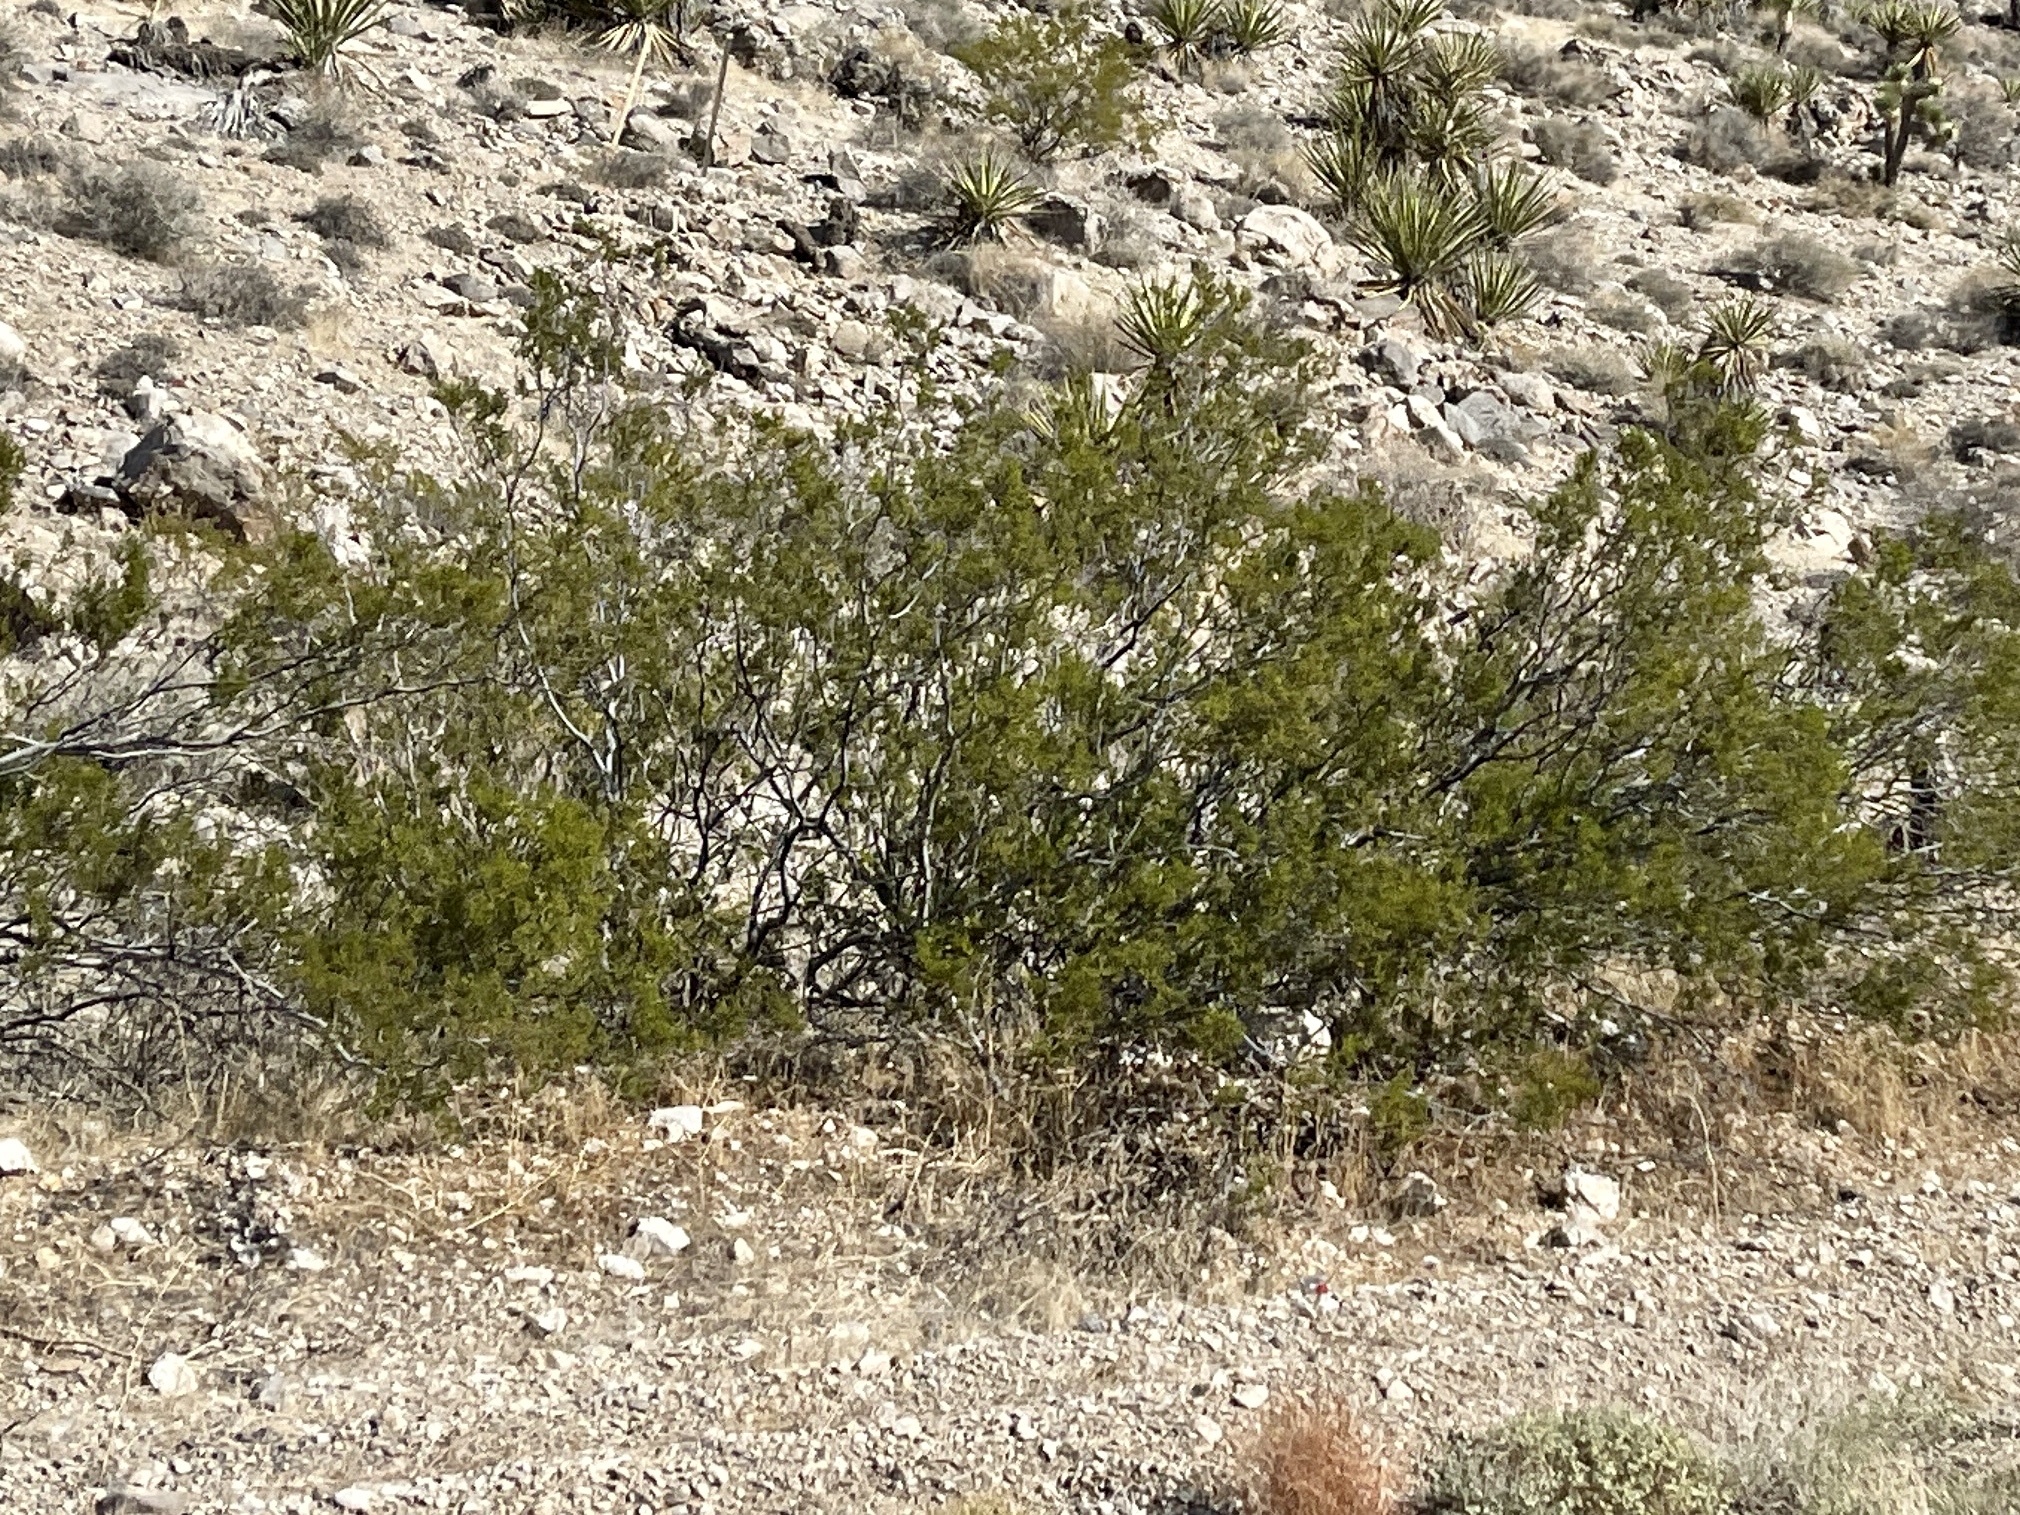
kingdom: Plantae
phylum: Tracheophyta
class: Magnoliopsida
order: Zygophyllales
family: Zygophyllaceae
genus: Larrea
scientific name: Larrea tridentata
